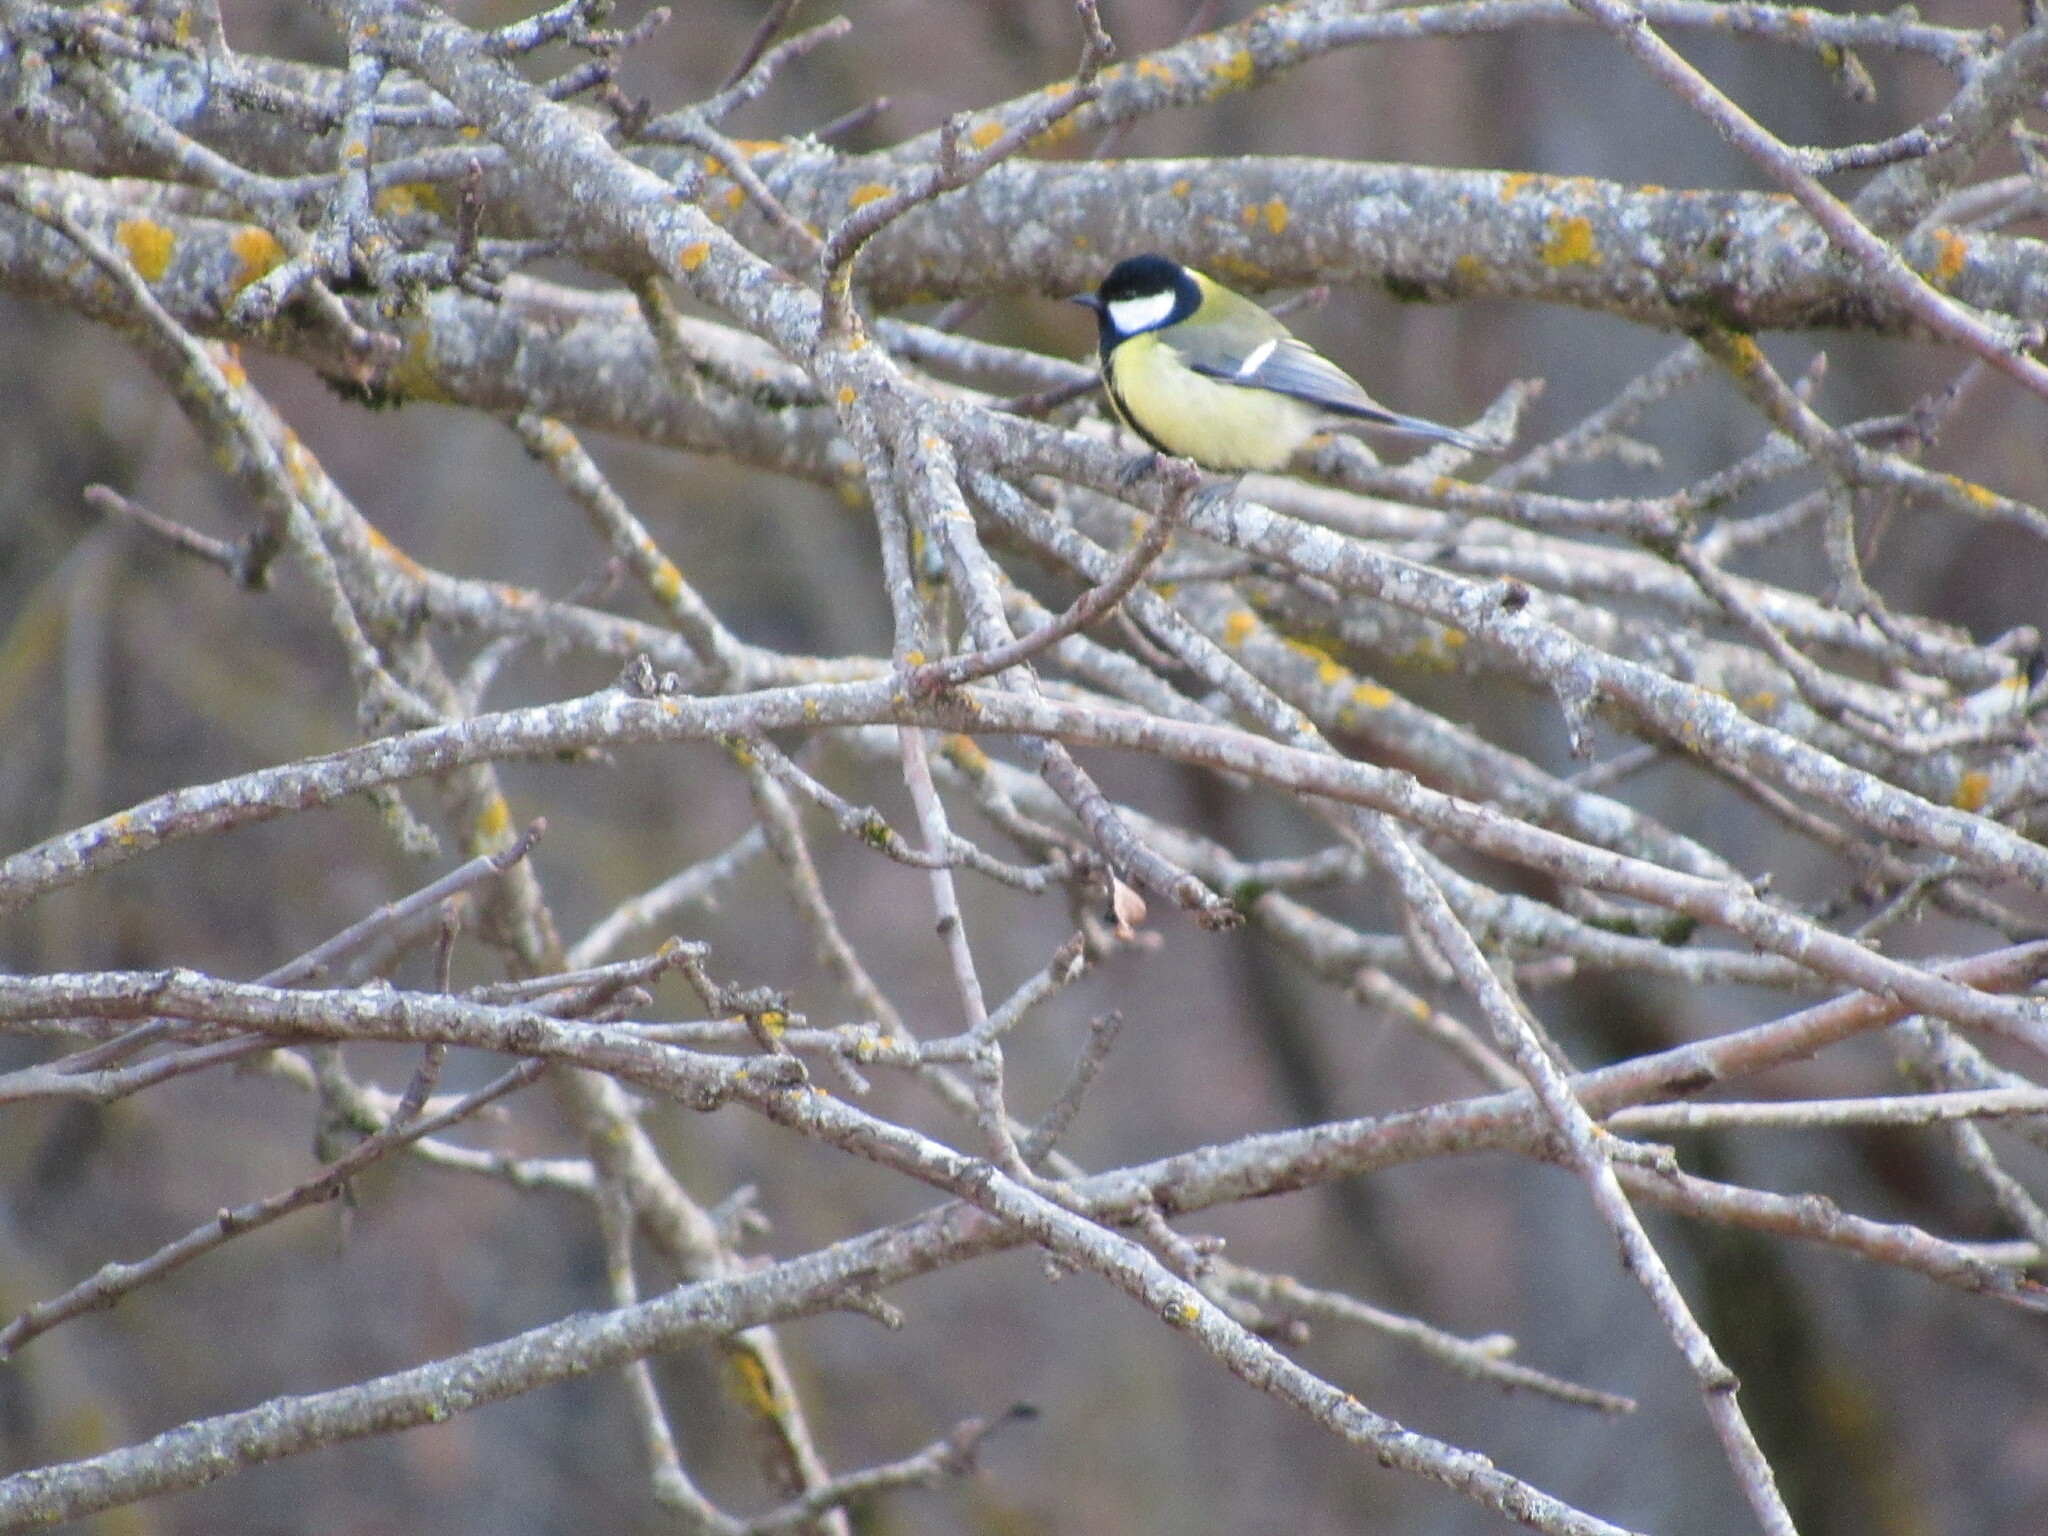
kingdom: Animalia
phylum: Chordata
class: Aves
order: Passeriformes
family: Paridae
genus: Parus
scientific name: Parus major
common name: Great tit
